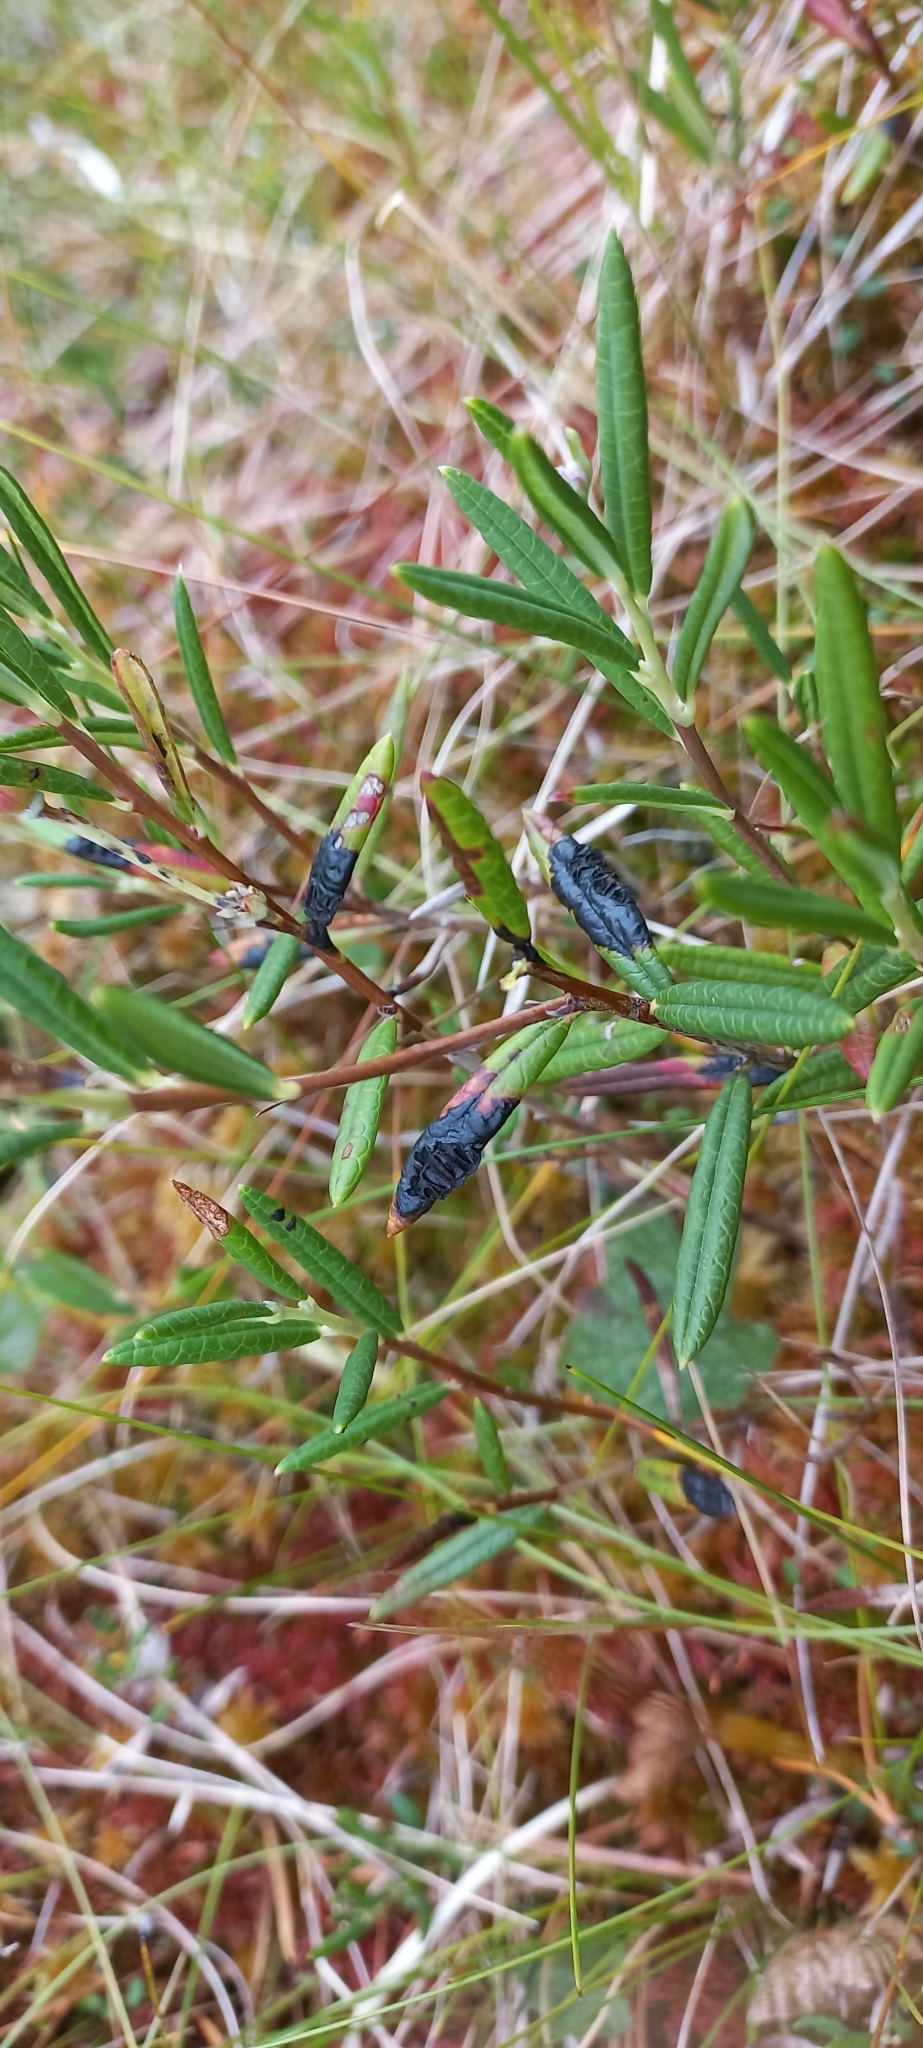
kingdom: Fungi
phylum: Ascomycota
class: Leotiomycetes
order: Rhytismatales
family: Rhytismataceae
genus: Rhytisma
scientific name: Rhytisma andromedae
